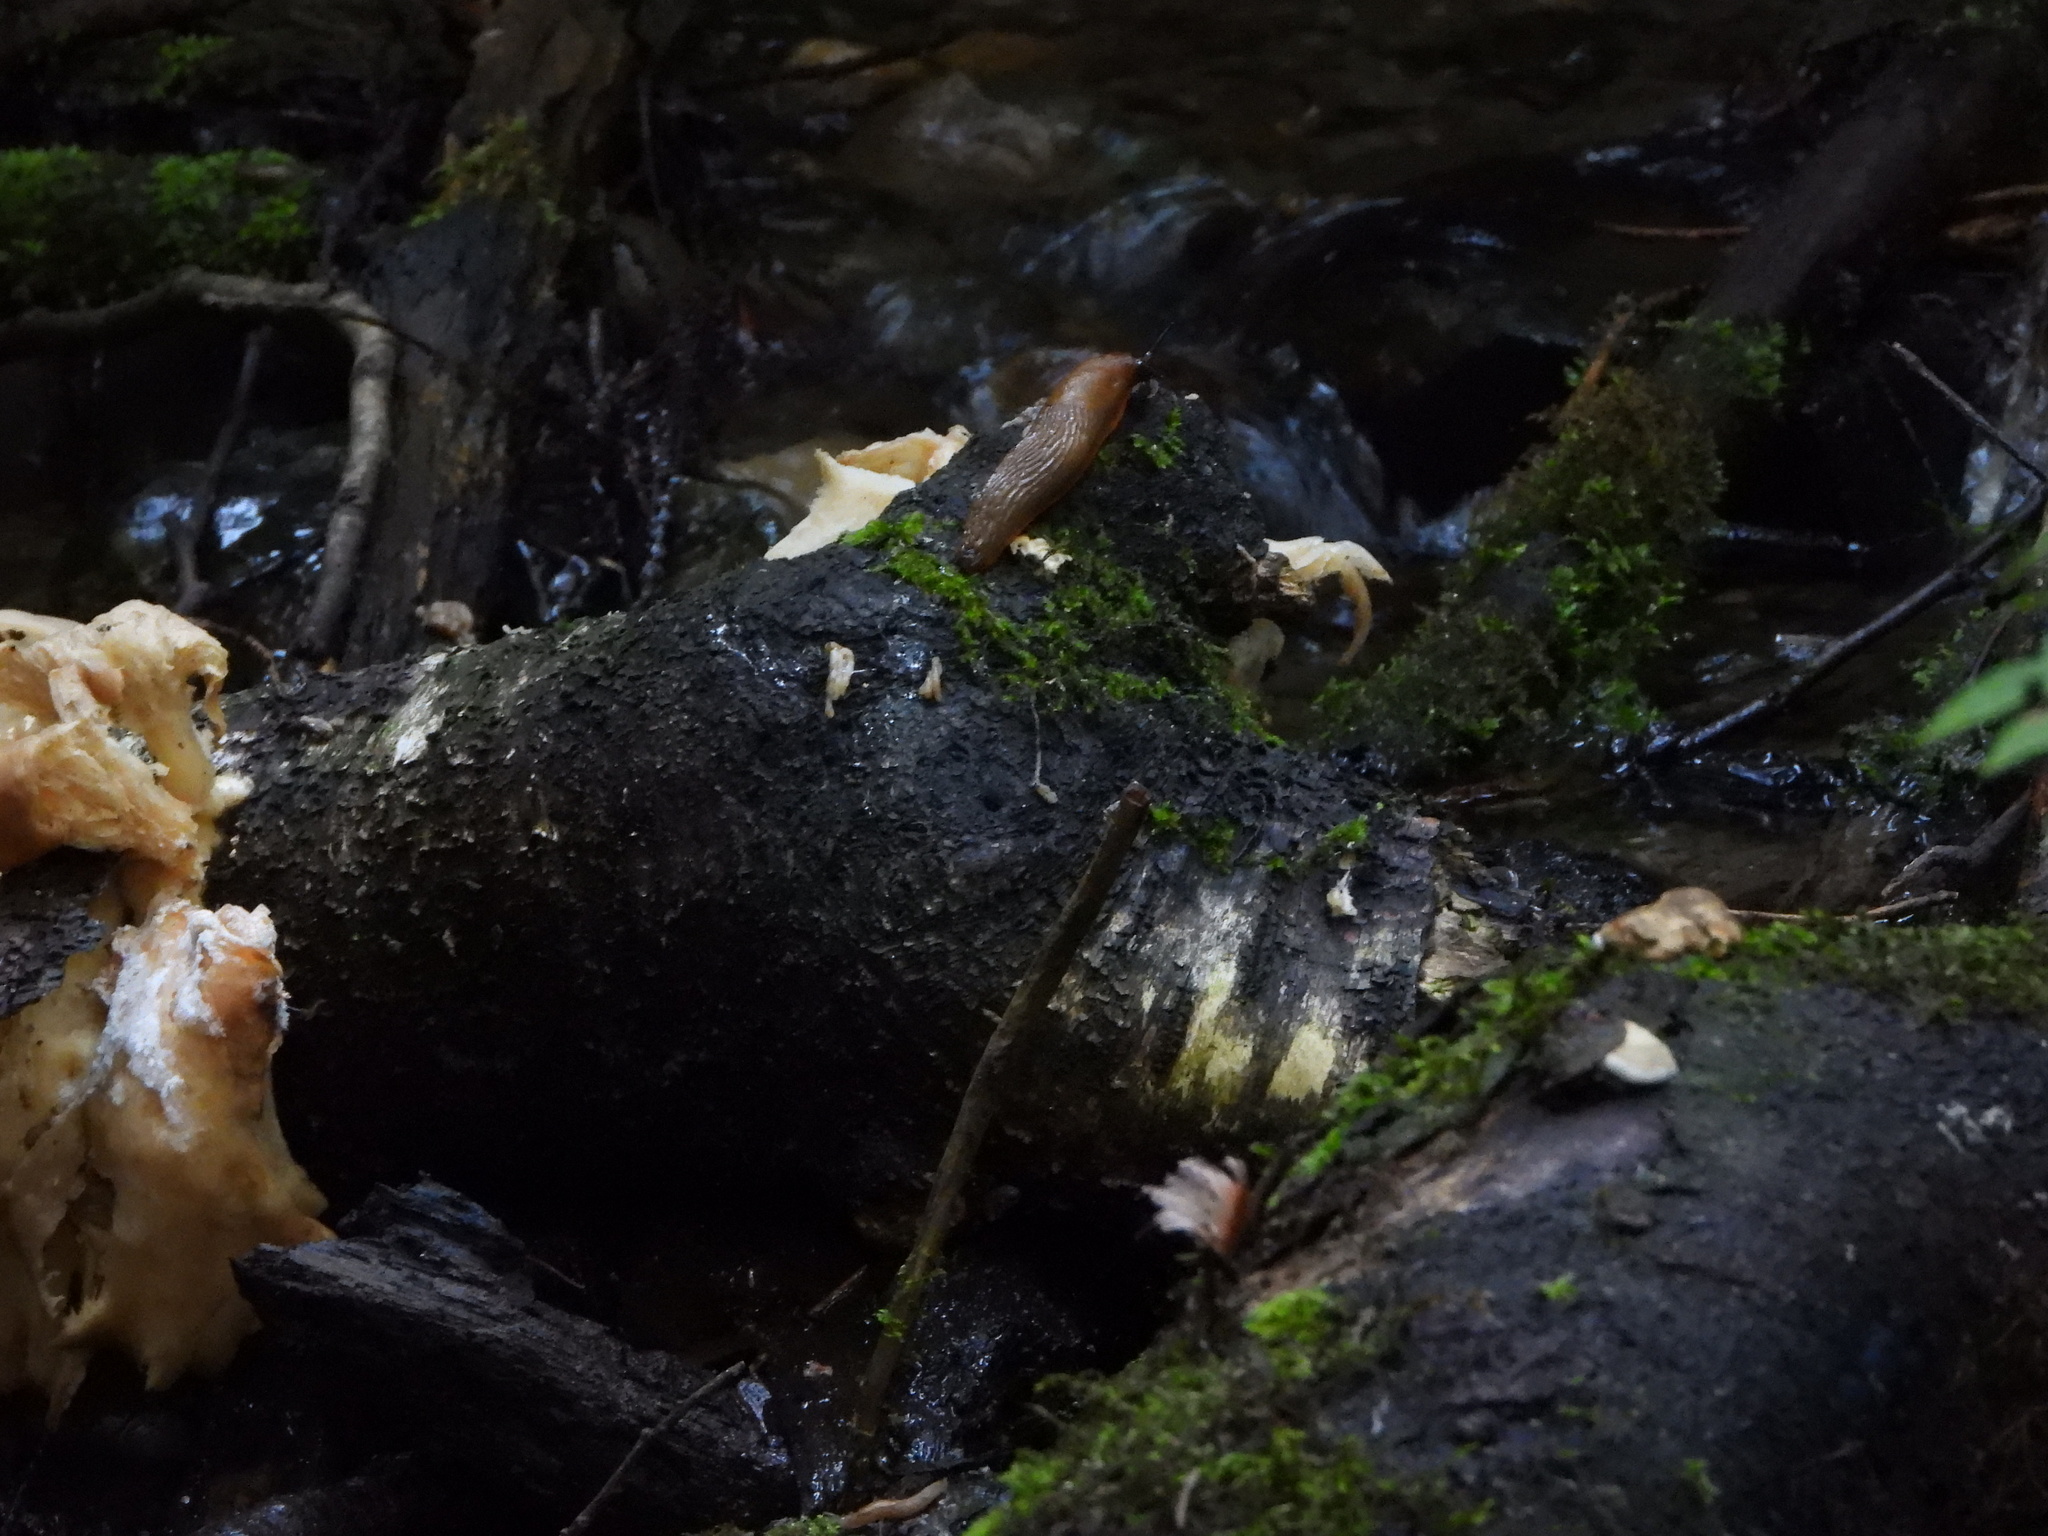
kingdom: Animalia
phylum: Mollusca
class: Gastropoda
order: Stylommatophora
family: Arionidae
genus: Arion
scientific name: Arion
